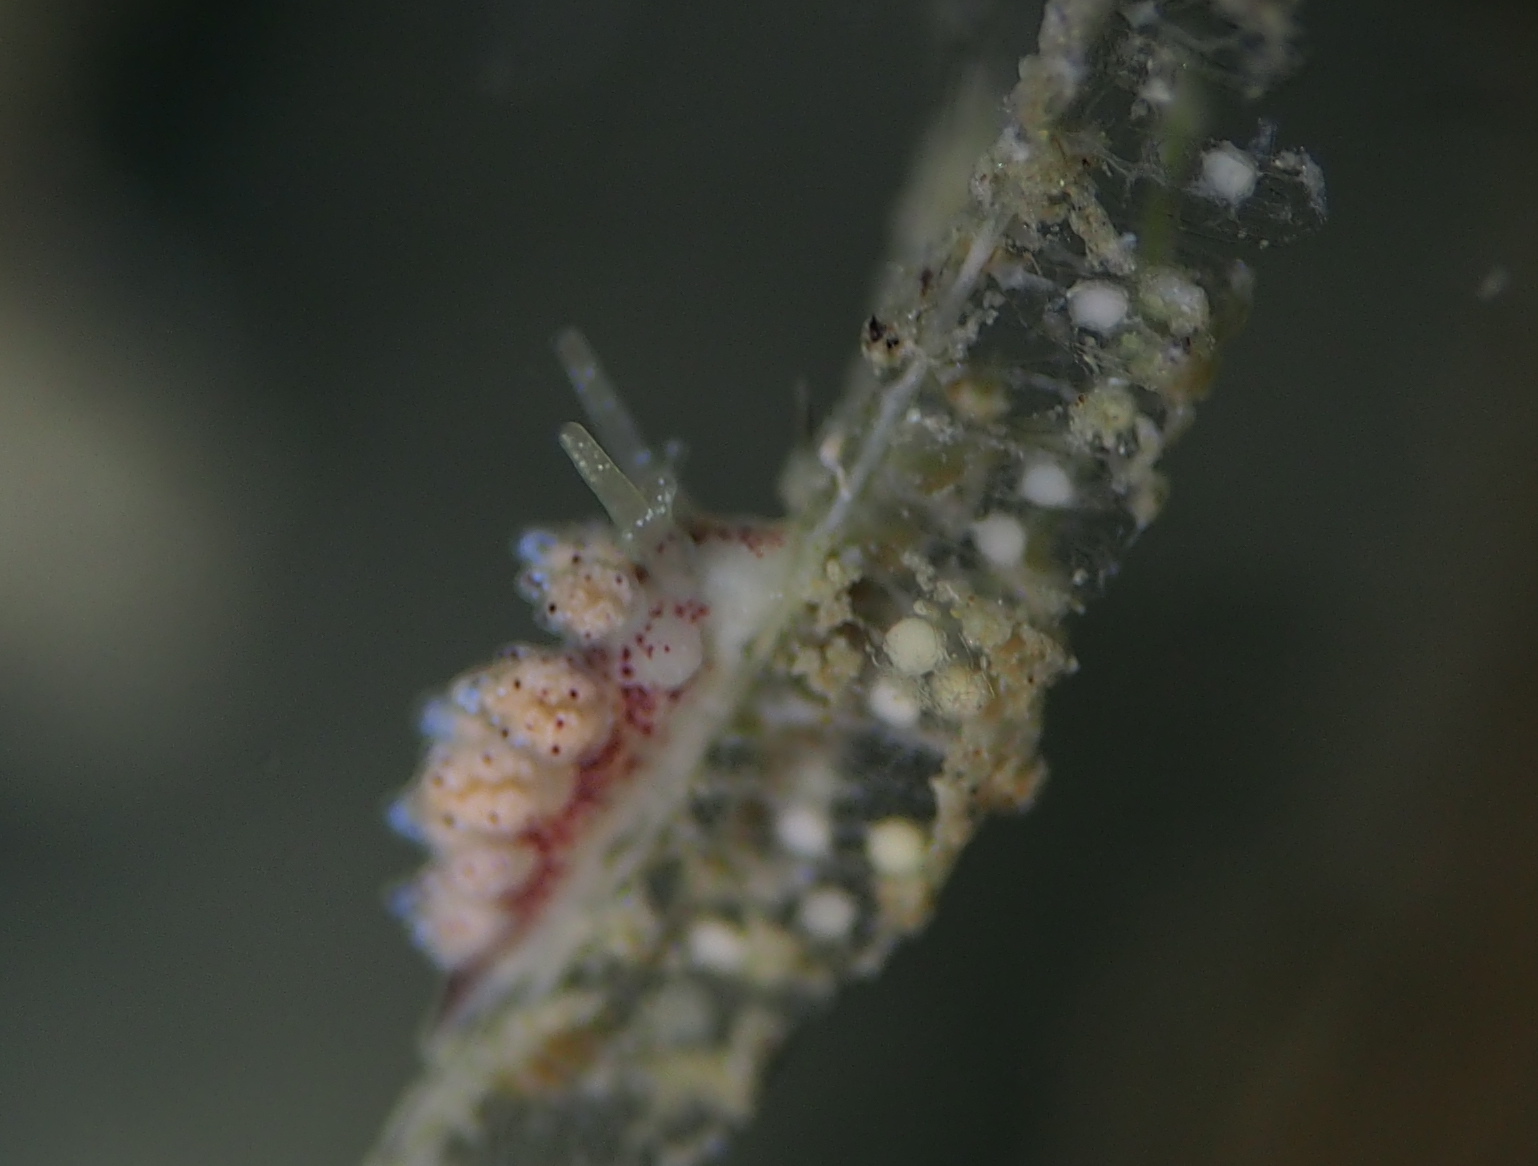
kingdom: Animalia
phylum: Mollusca
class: Gastropoda
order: Nudibranchia
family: Dotidae
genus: Doto
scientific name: Doto dunnei
